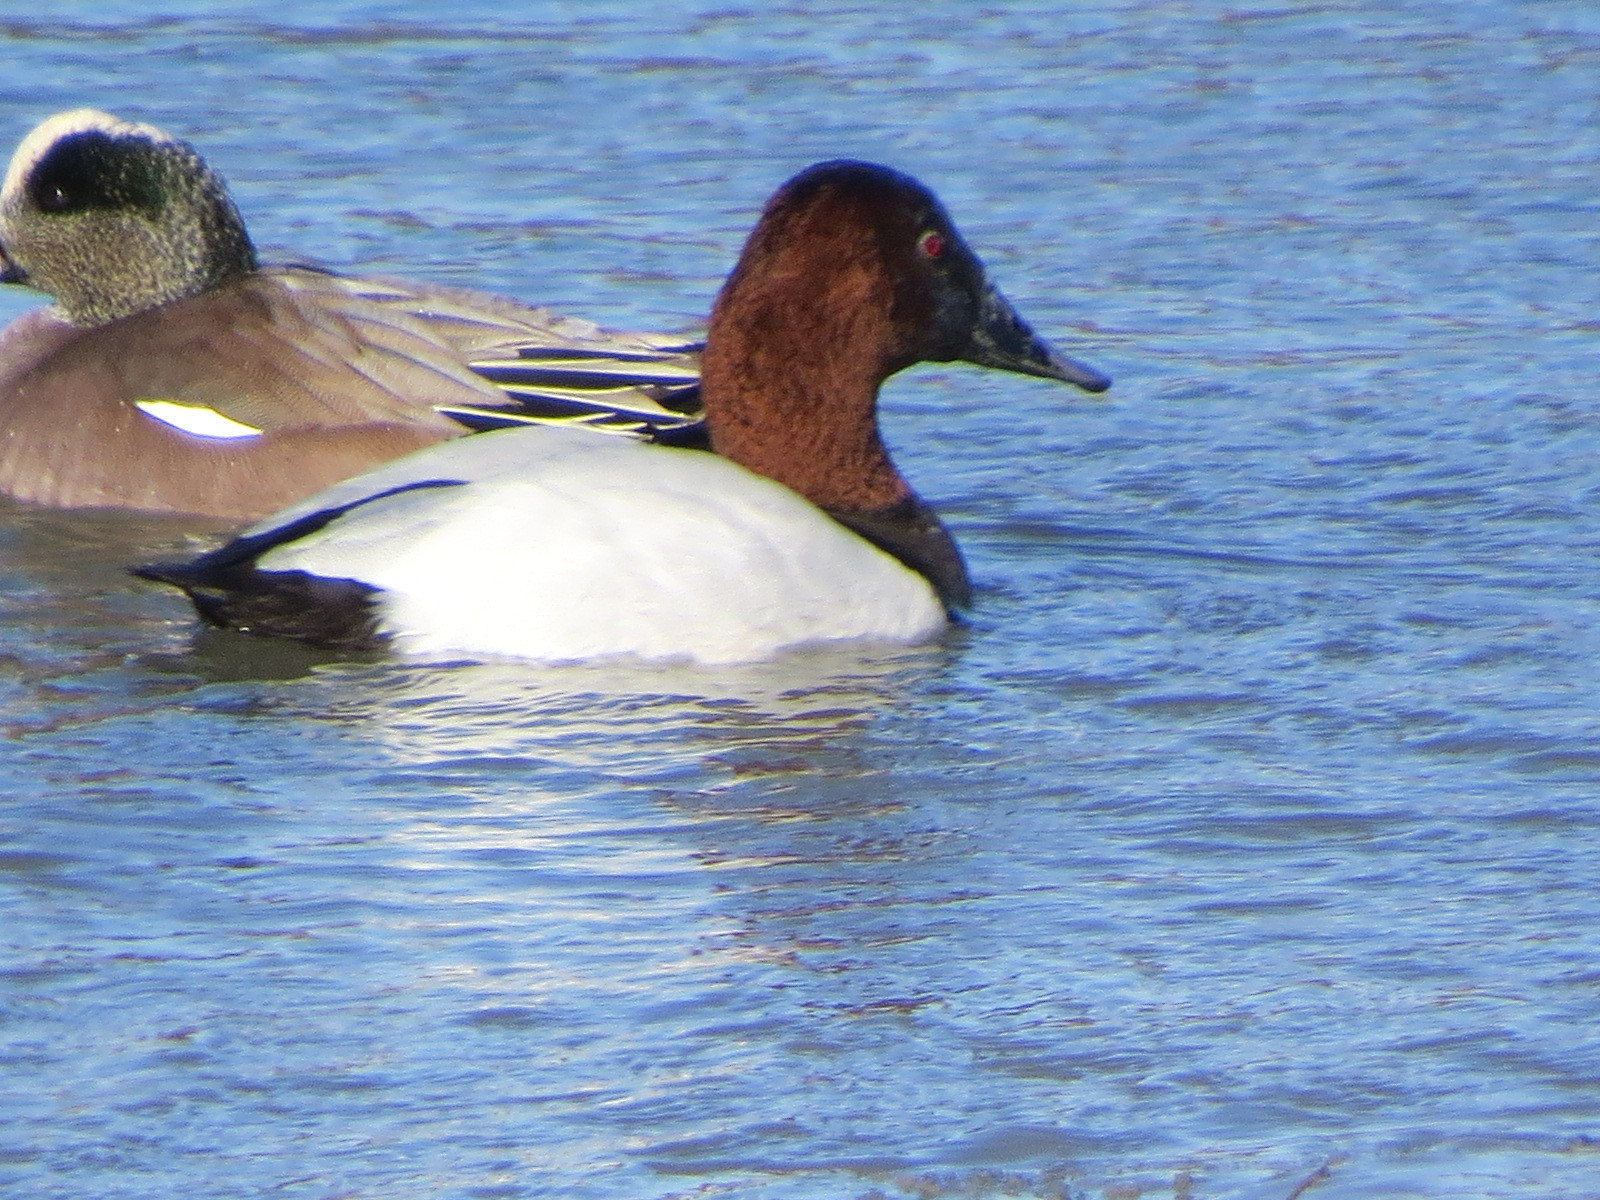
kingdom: Animalia
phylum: Chordata
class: Aves
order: Anseriformes
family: Anatidae
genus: Aythya
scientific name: Aythya valisineria
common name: Canvasback
